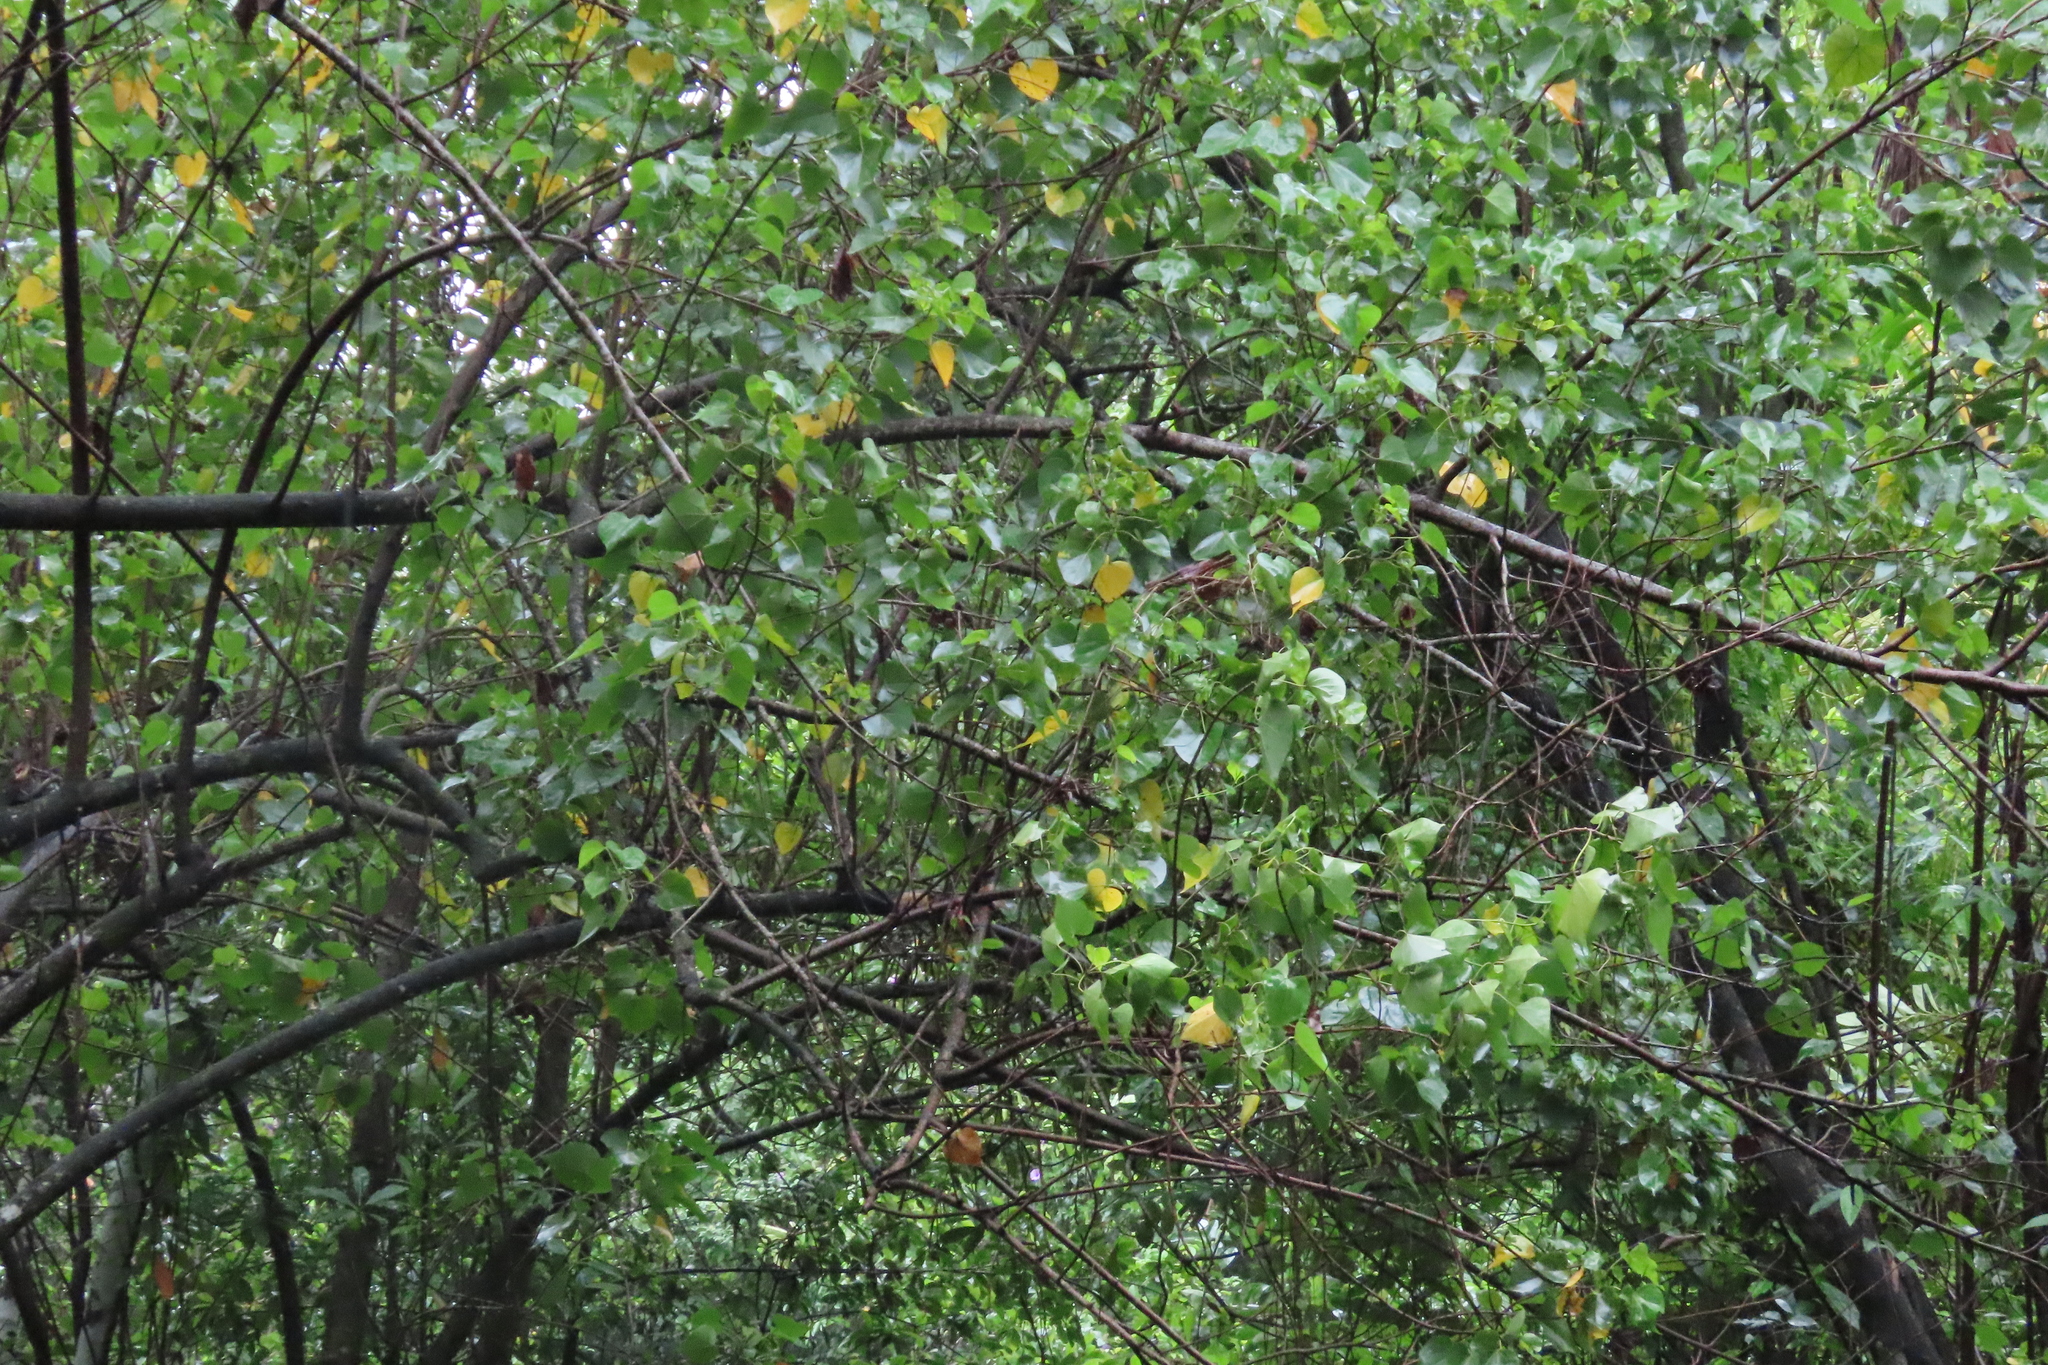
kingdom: Plantae
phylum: Tracheophyta
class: Magnoliopsida
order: Malvales
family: Malvaceae
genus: Thespesia
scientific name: Thespesia populnea
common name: Seaside mahoe
